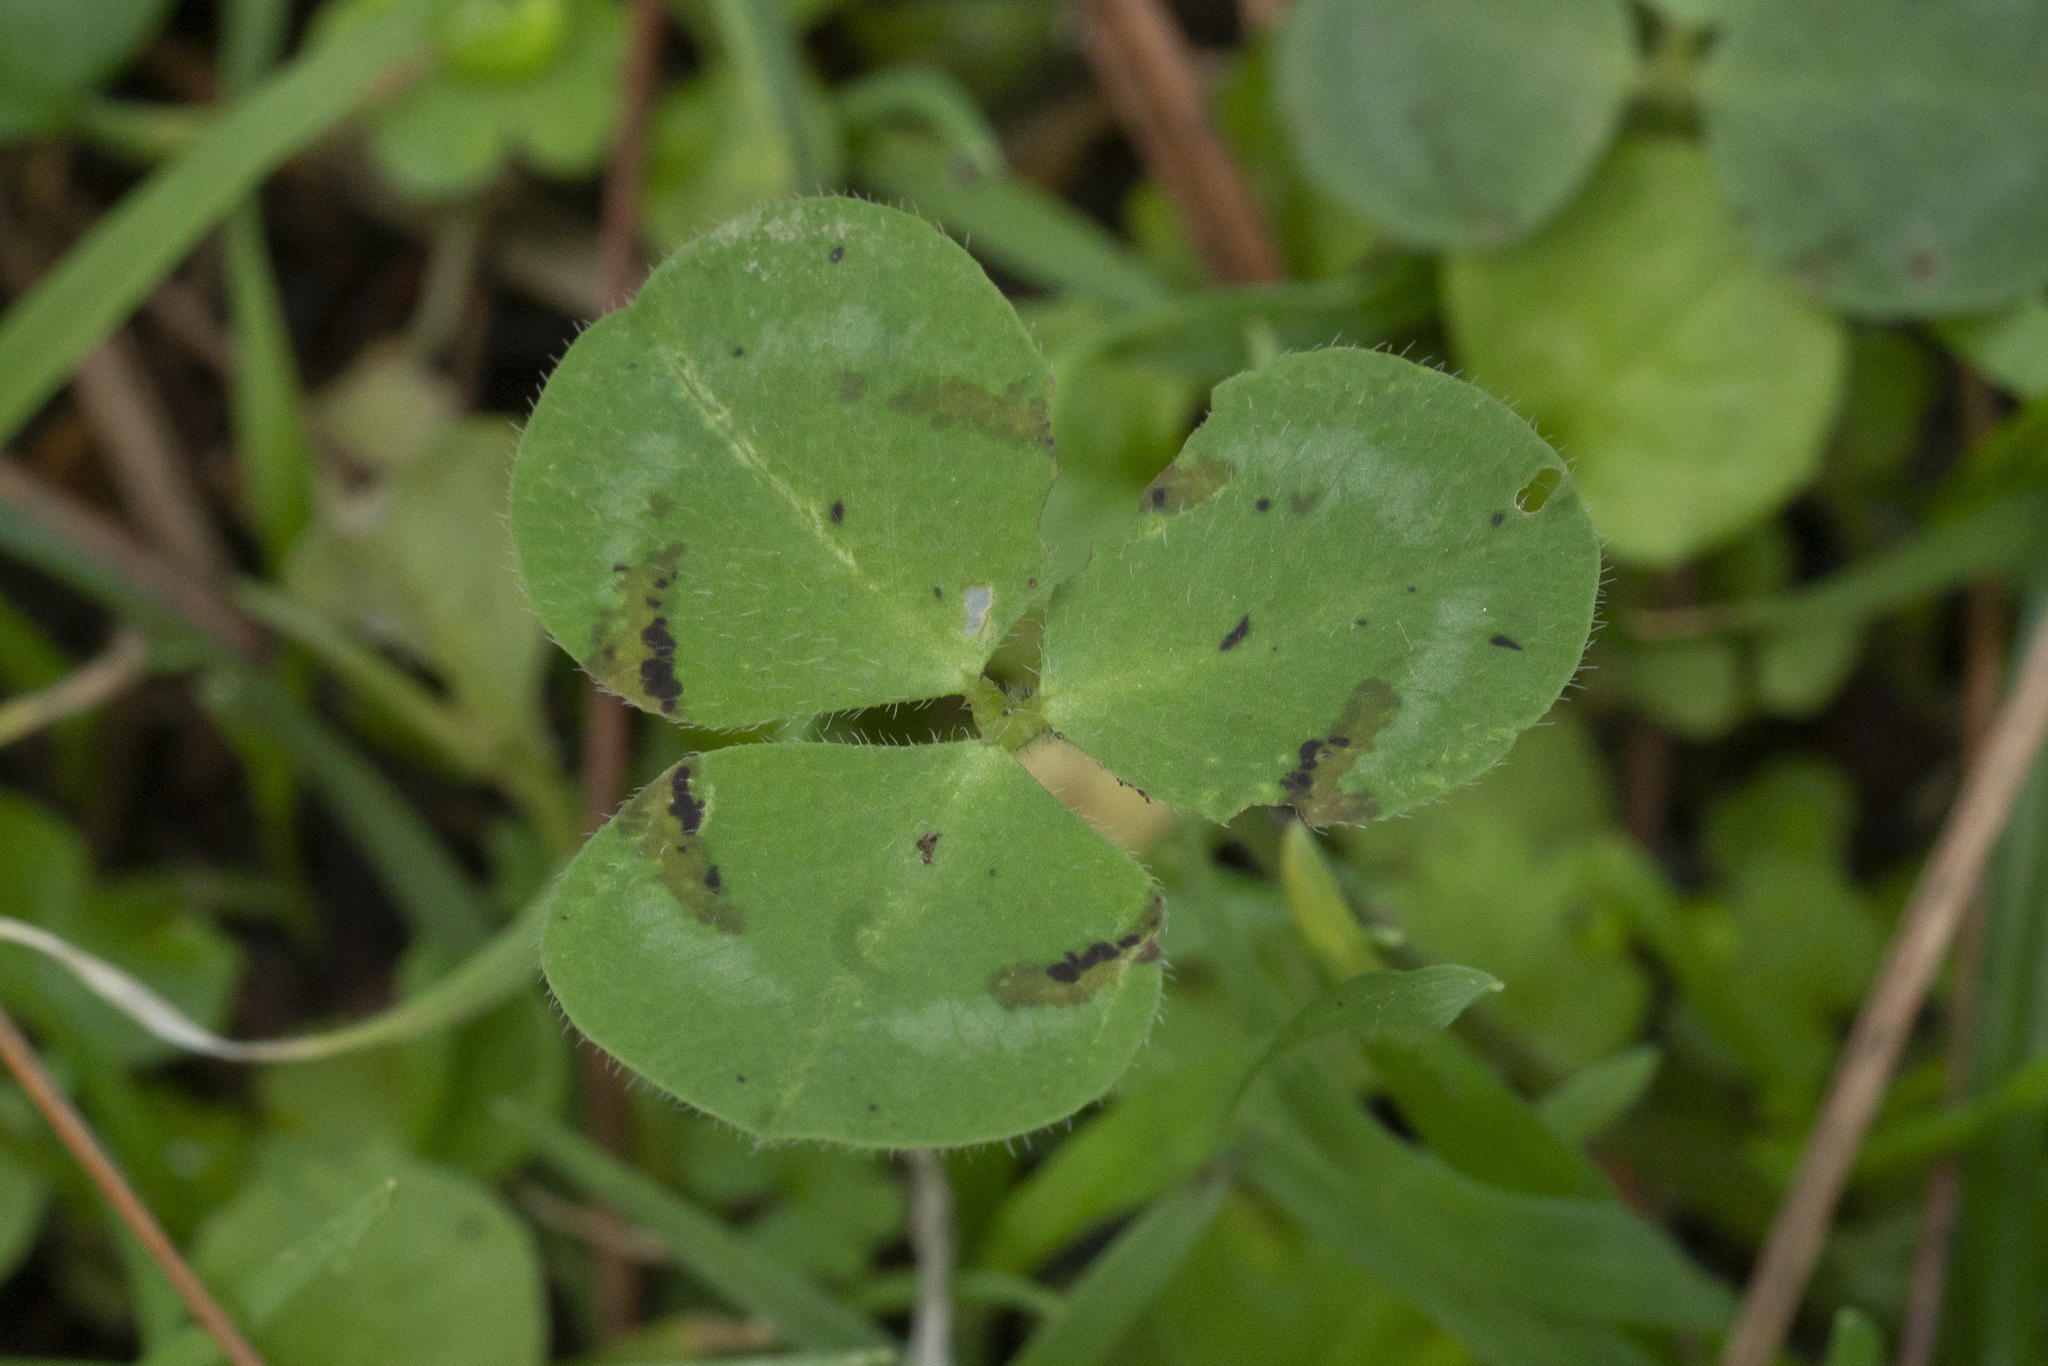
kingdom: Plantae
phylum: Tracheophyta
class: Magnoliopsida
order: Fabales
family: Fabaceae
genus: Trifolium
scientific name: Trifolium
